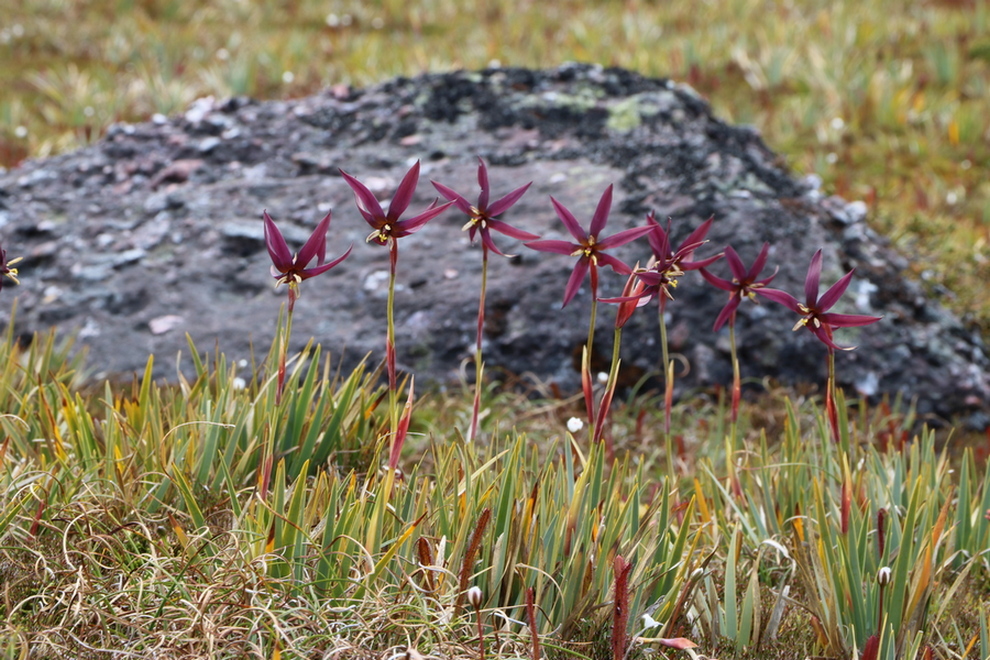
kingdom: Plantae
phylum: Tracheophyta
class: Liliopsida
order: Asparagales
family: Iridaceae
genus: Isophysis
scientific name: Isophysis tasmanica
